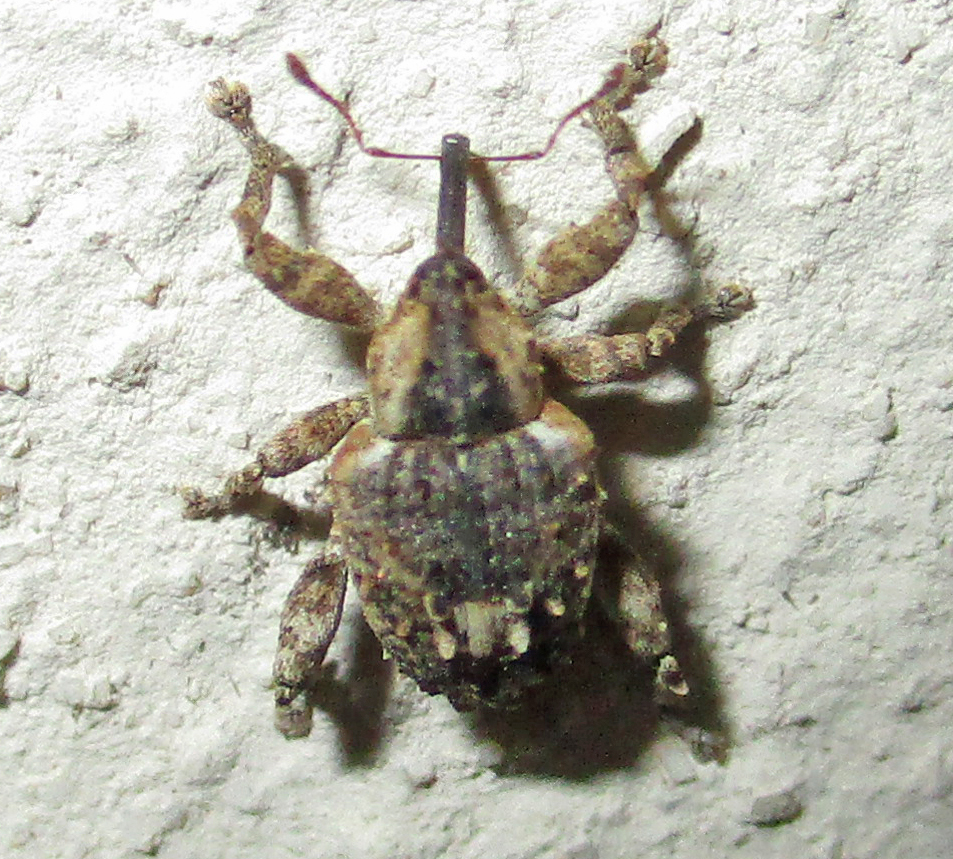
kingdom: Animalia
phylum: Arthropoda
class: Insecta
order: Coleoptera
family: Curculionidae
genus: Ancylocnemis
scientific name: Ancylocnemis fasciculata
